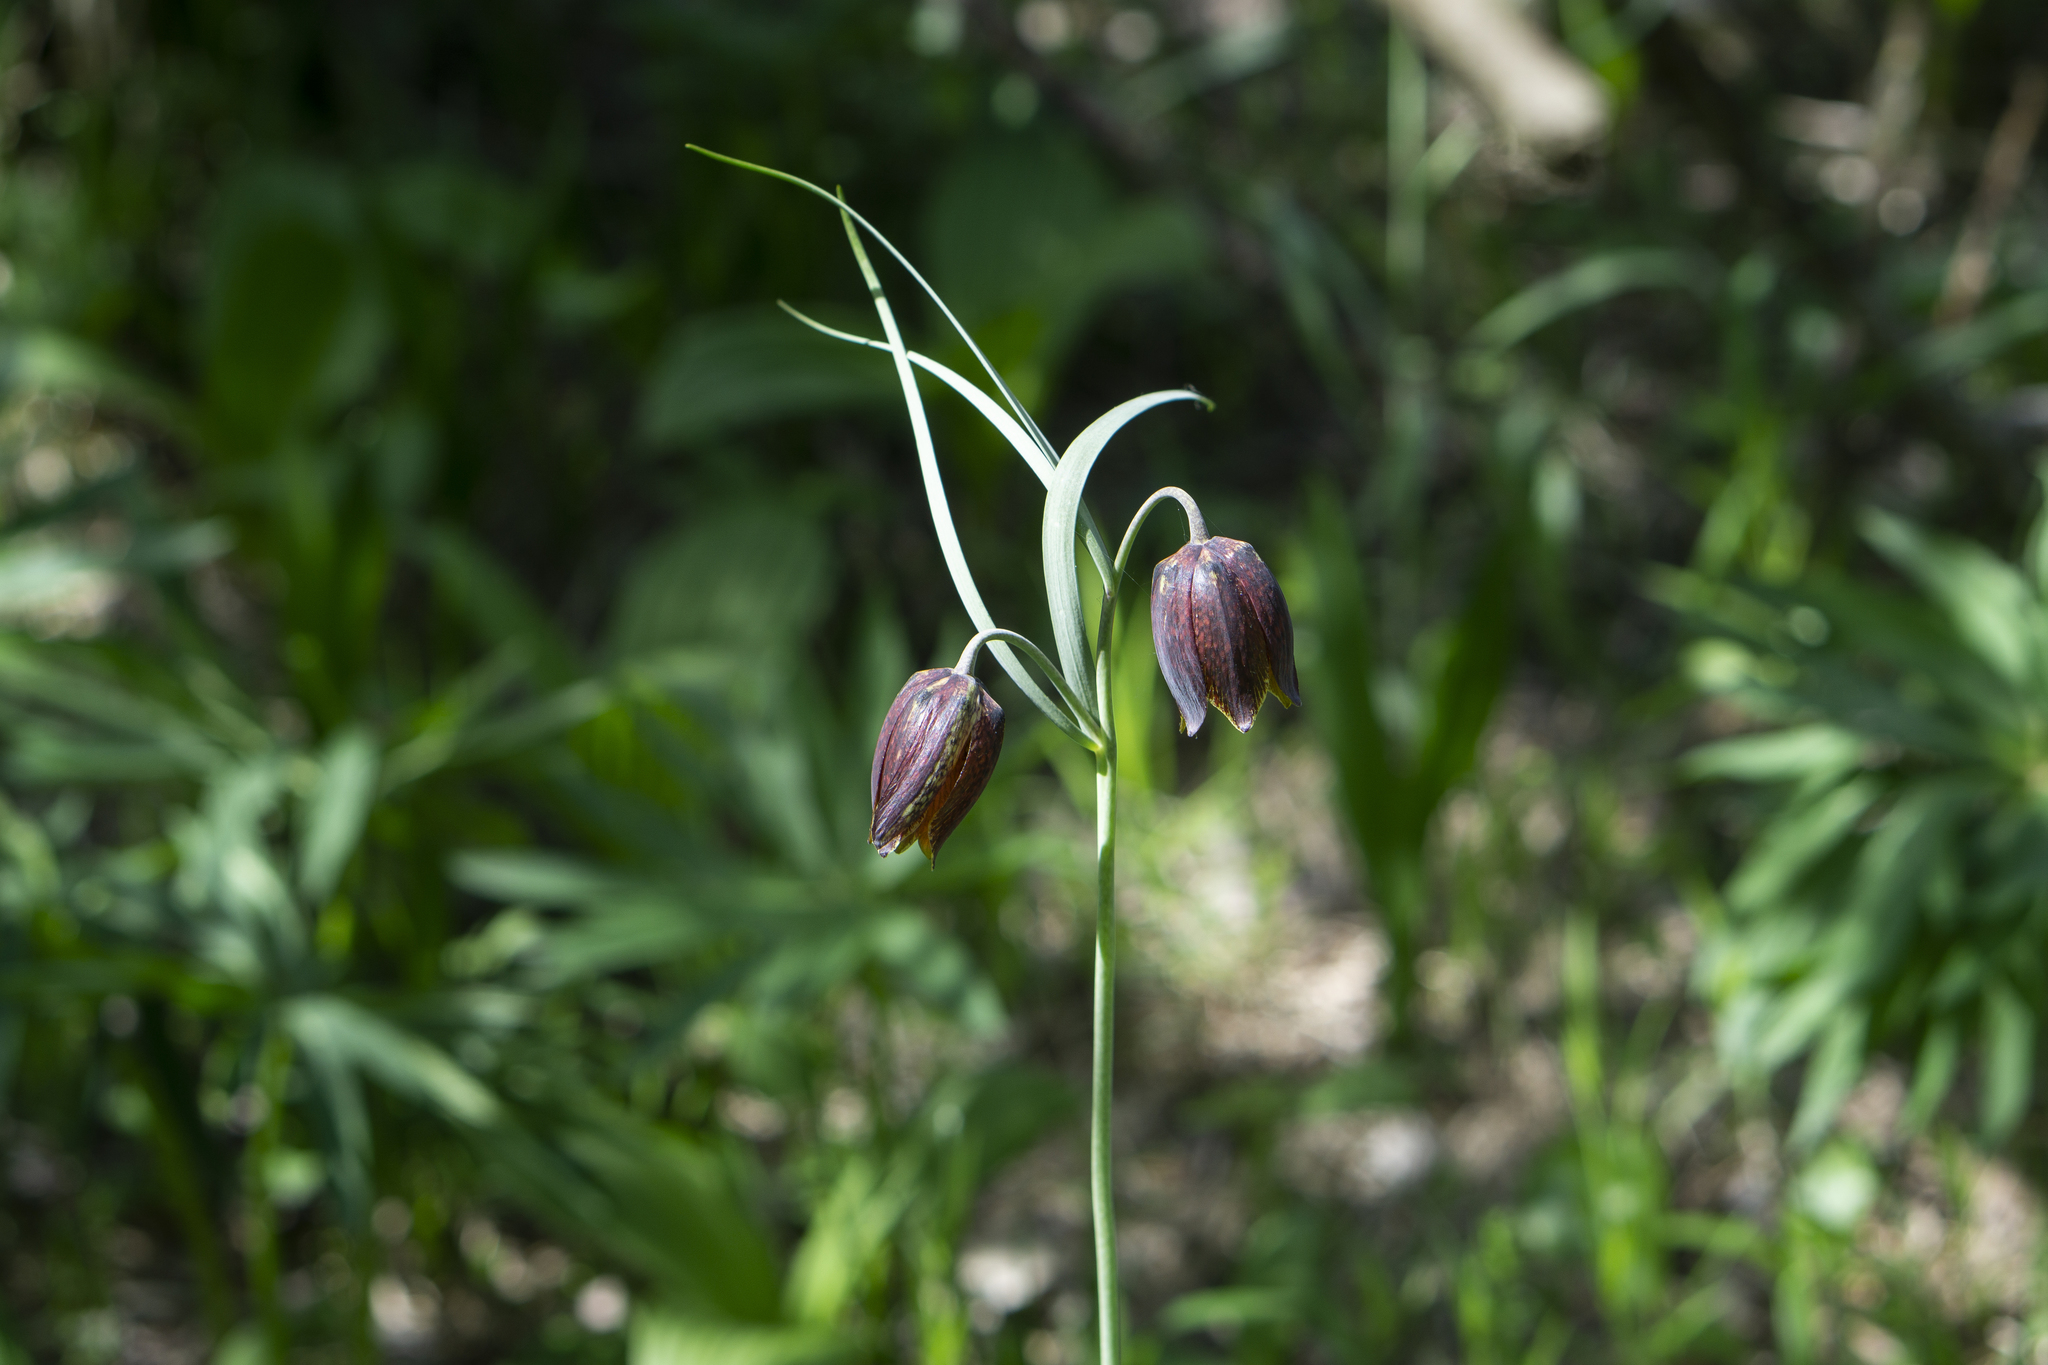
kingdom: Plantae
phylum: Tracheophyta
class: Liliopsida
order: Liliales
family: Liliaceae
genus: Fritillaria
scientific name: Fritillaria montana
